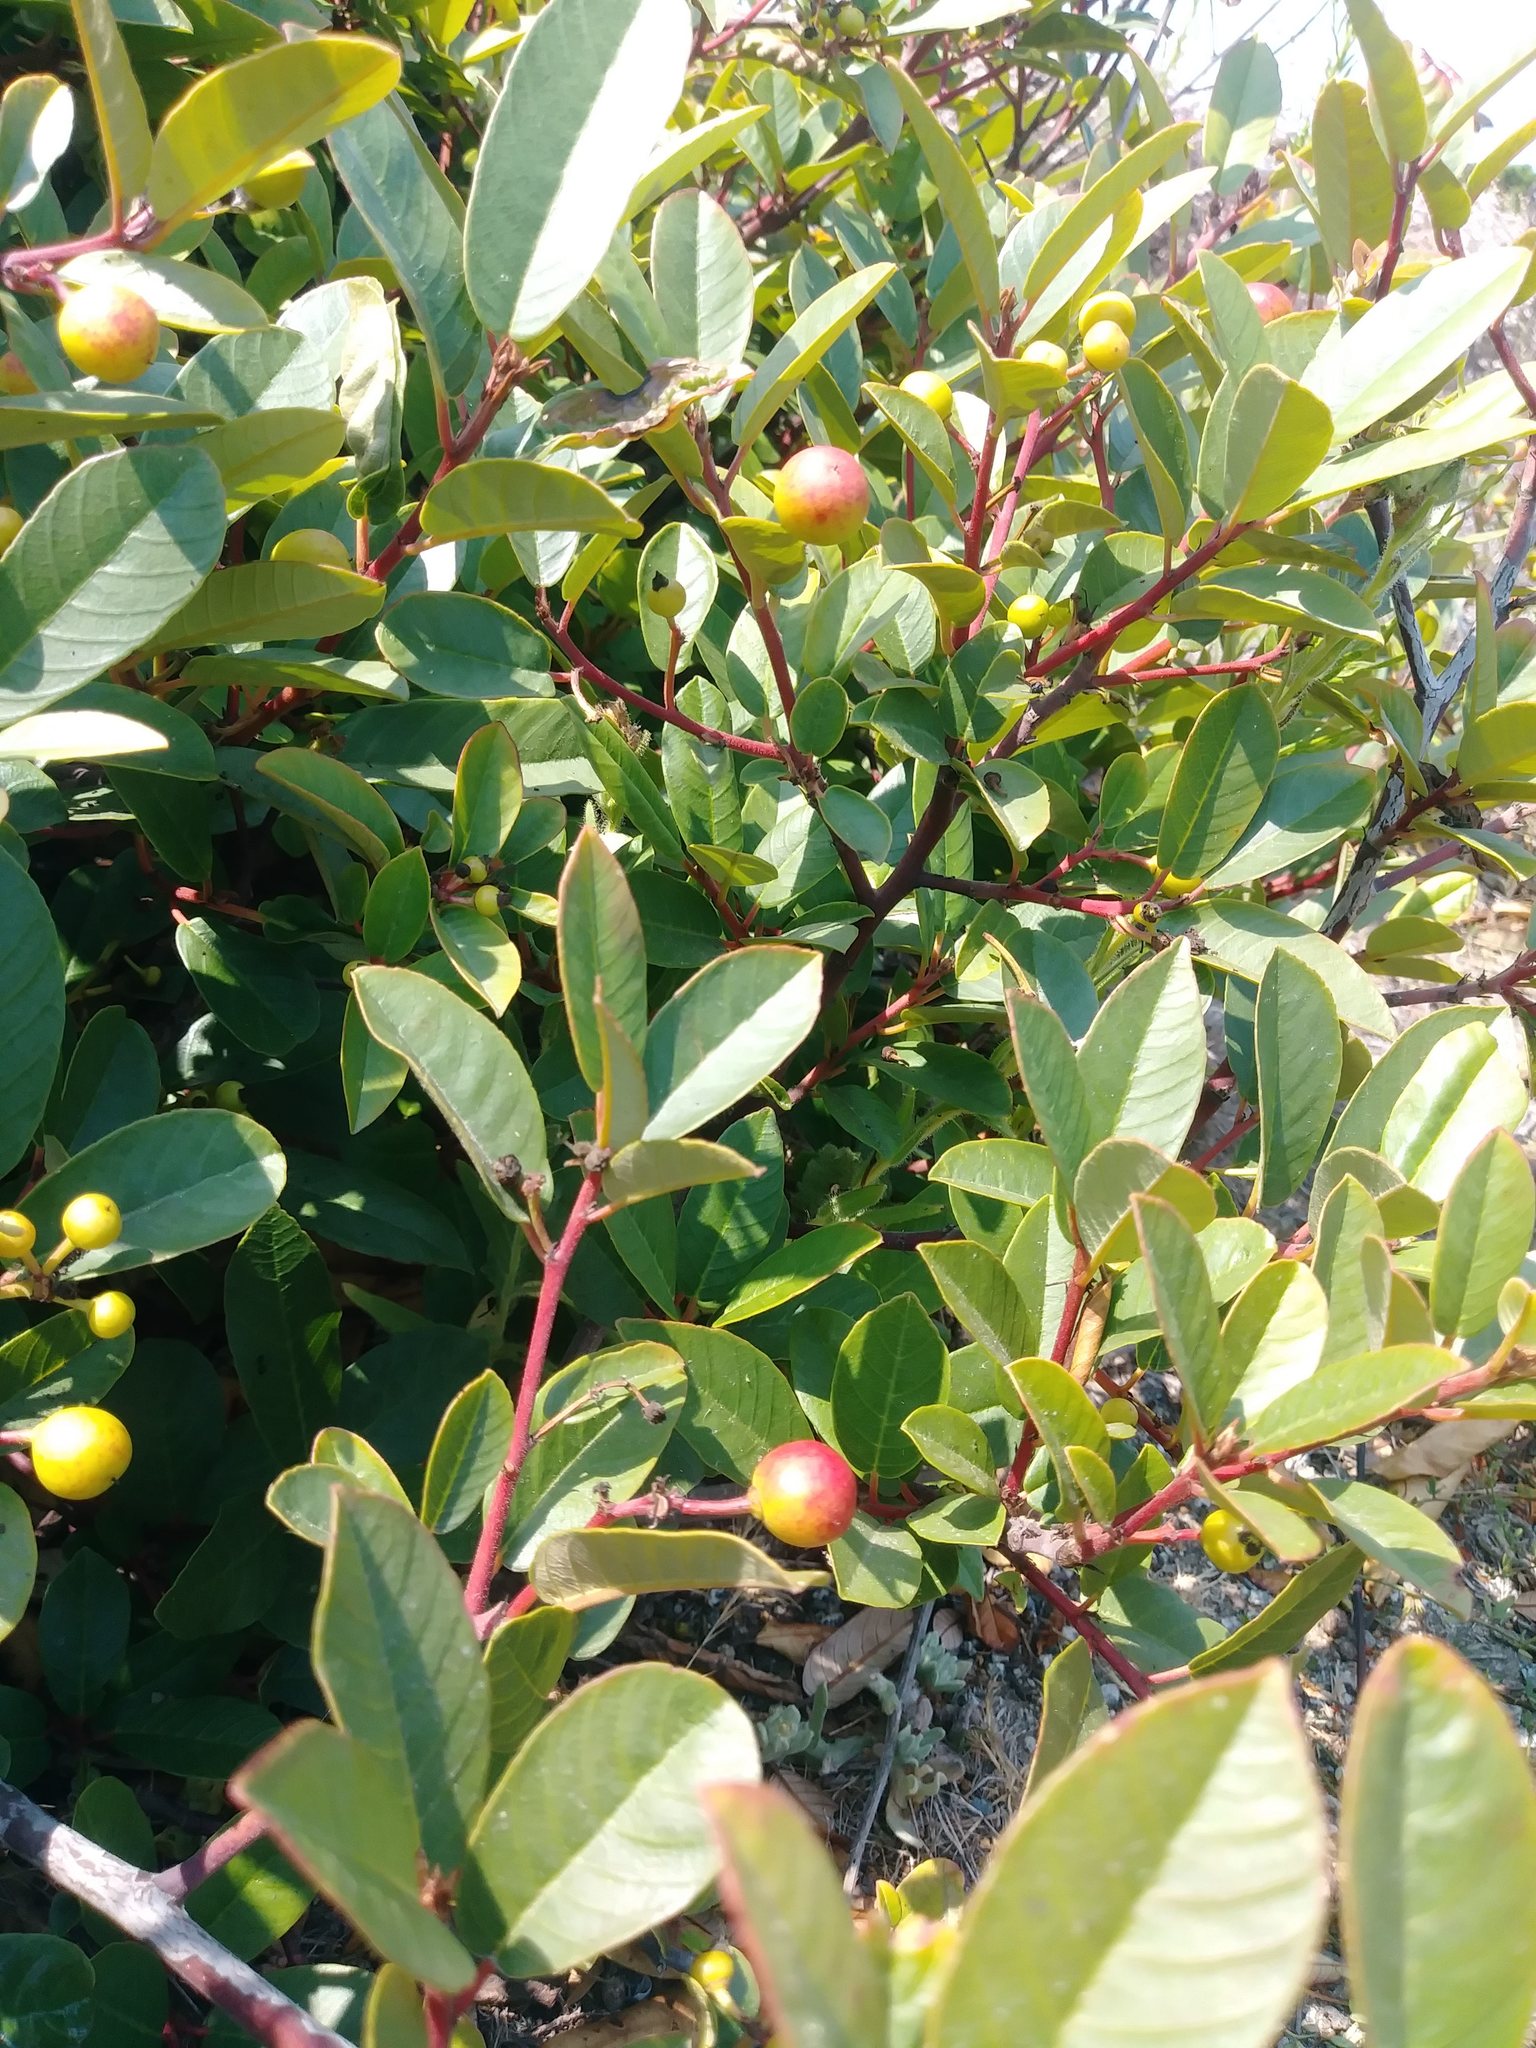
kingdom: Plantae
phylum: Tracheophyta
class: Magnoliopsida
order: Rosales
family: Rhamnaceae
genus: Frangula
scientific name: Frangula californica
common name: California buckthorn
